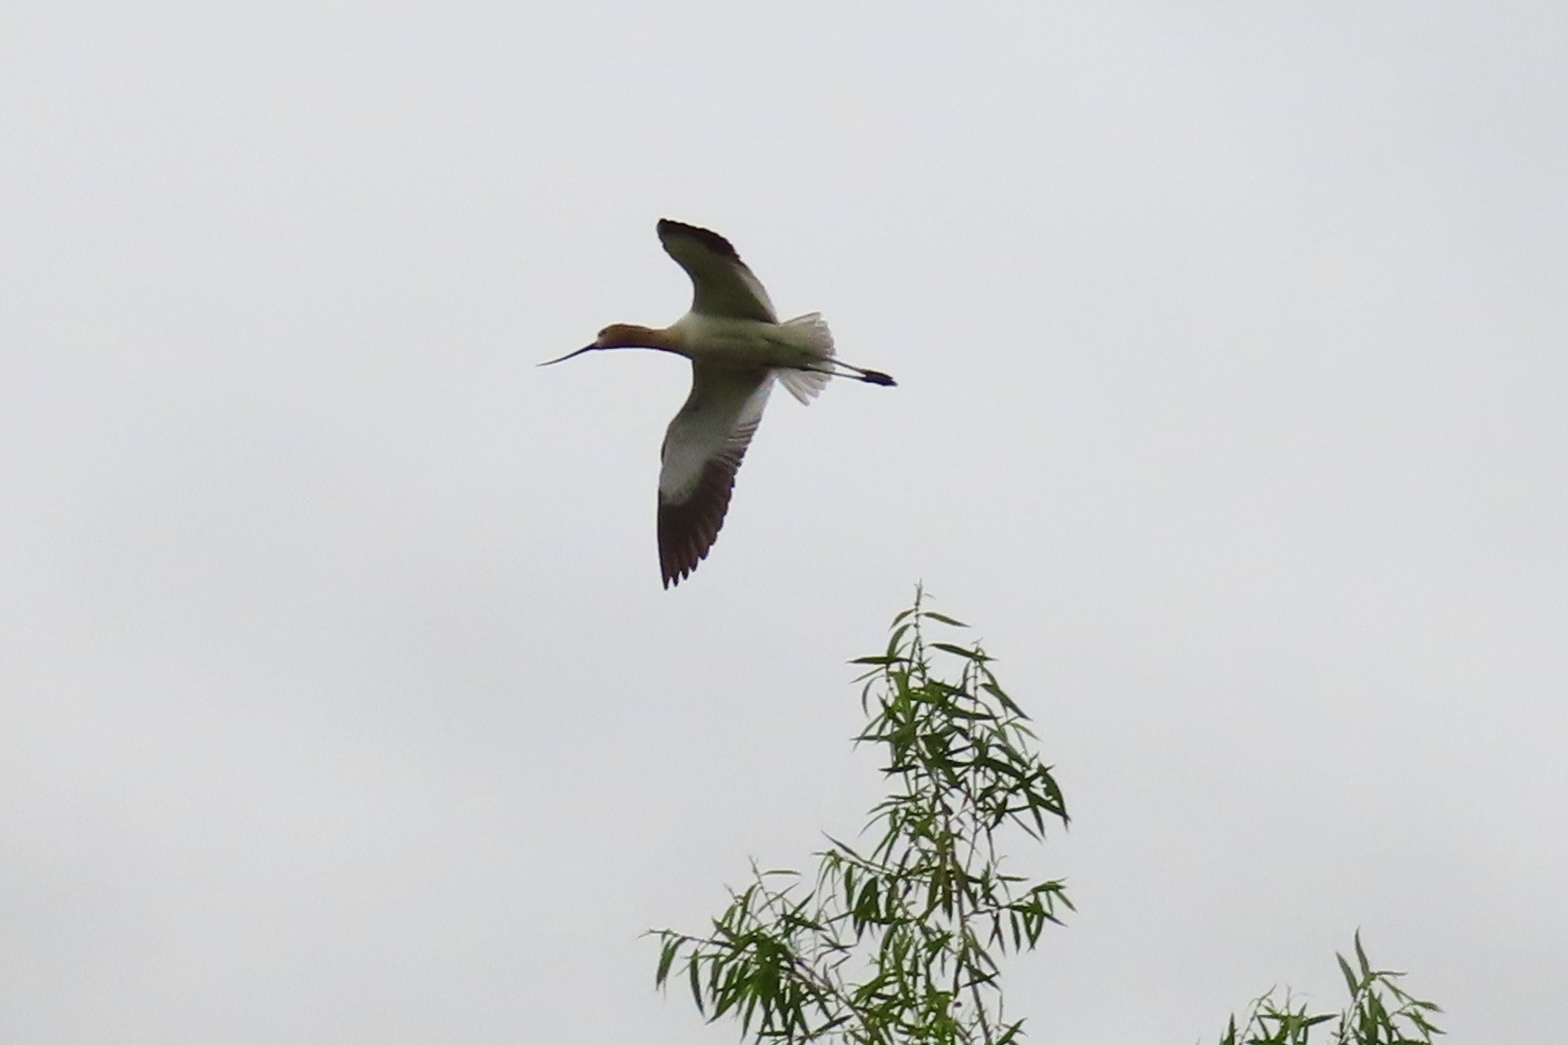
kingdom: Animalia
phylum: Chordata
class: Aves
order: Charadriiformes
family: Recurvirostridae
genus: Recurvirostra
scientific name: Recurvirostra americana
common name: American avocet
